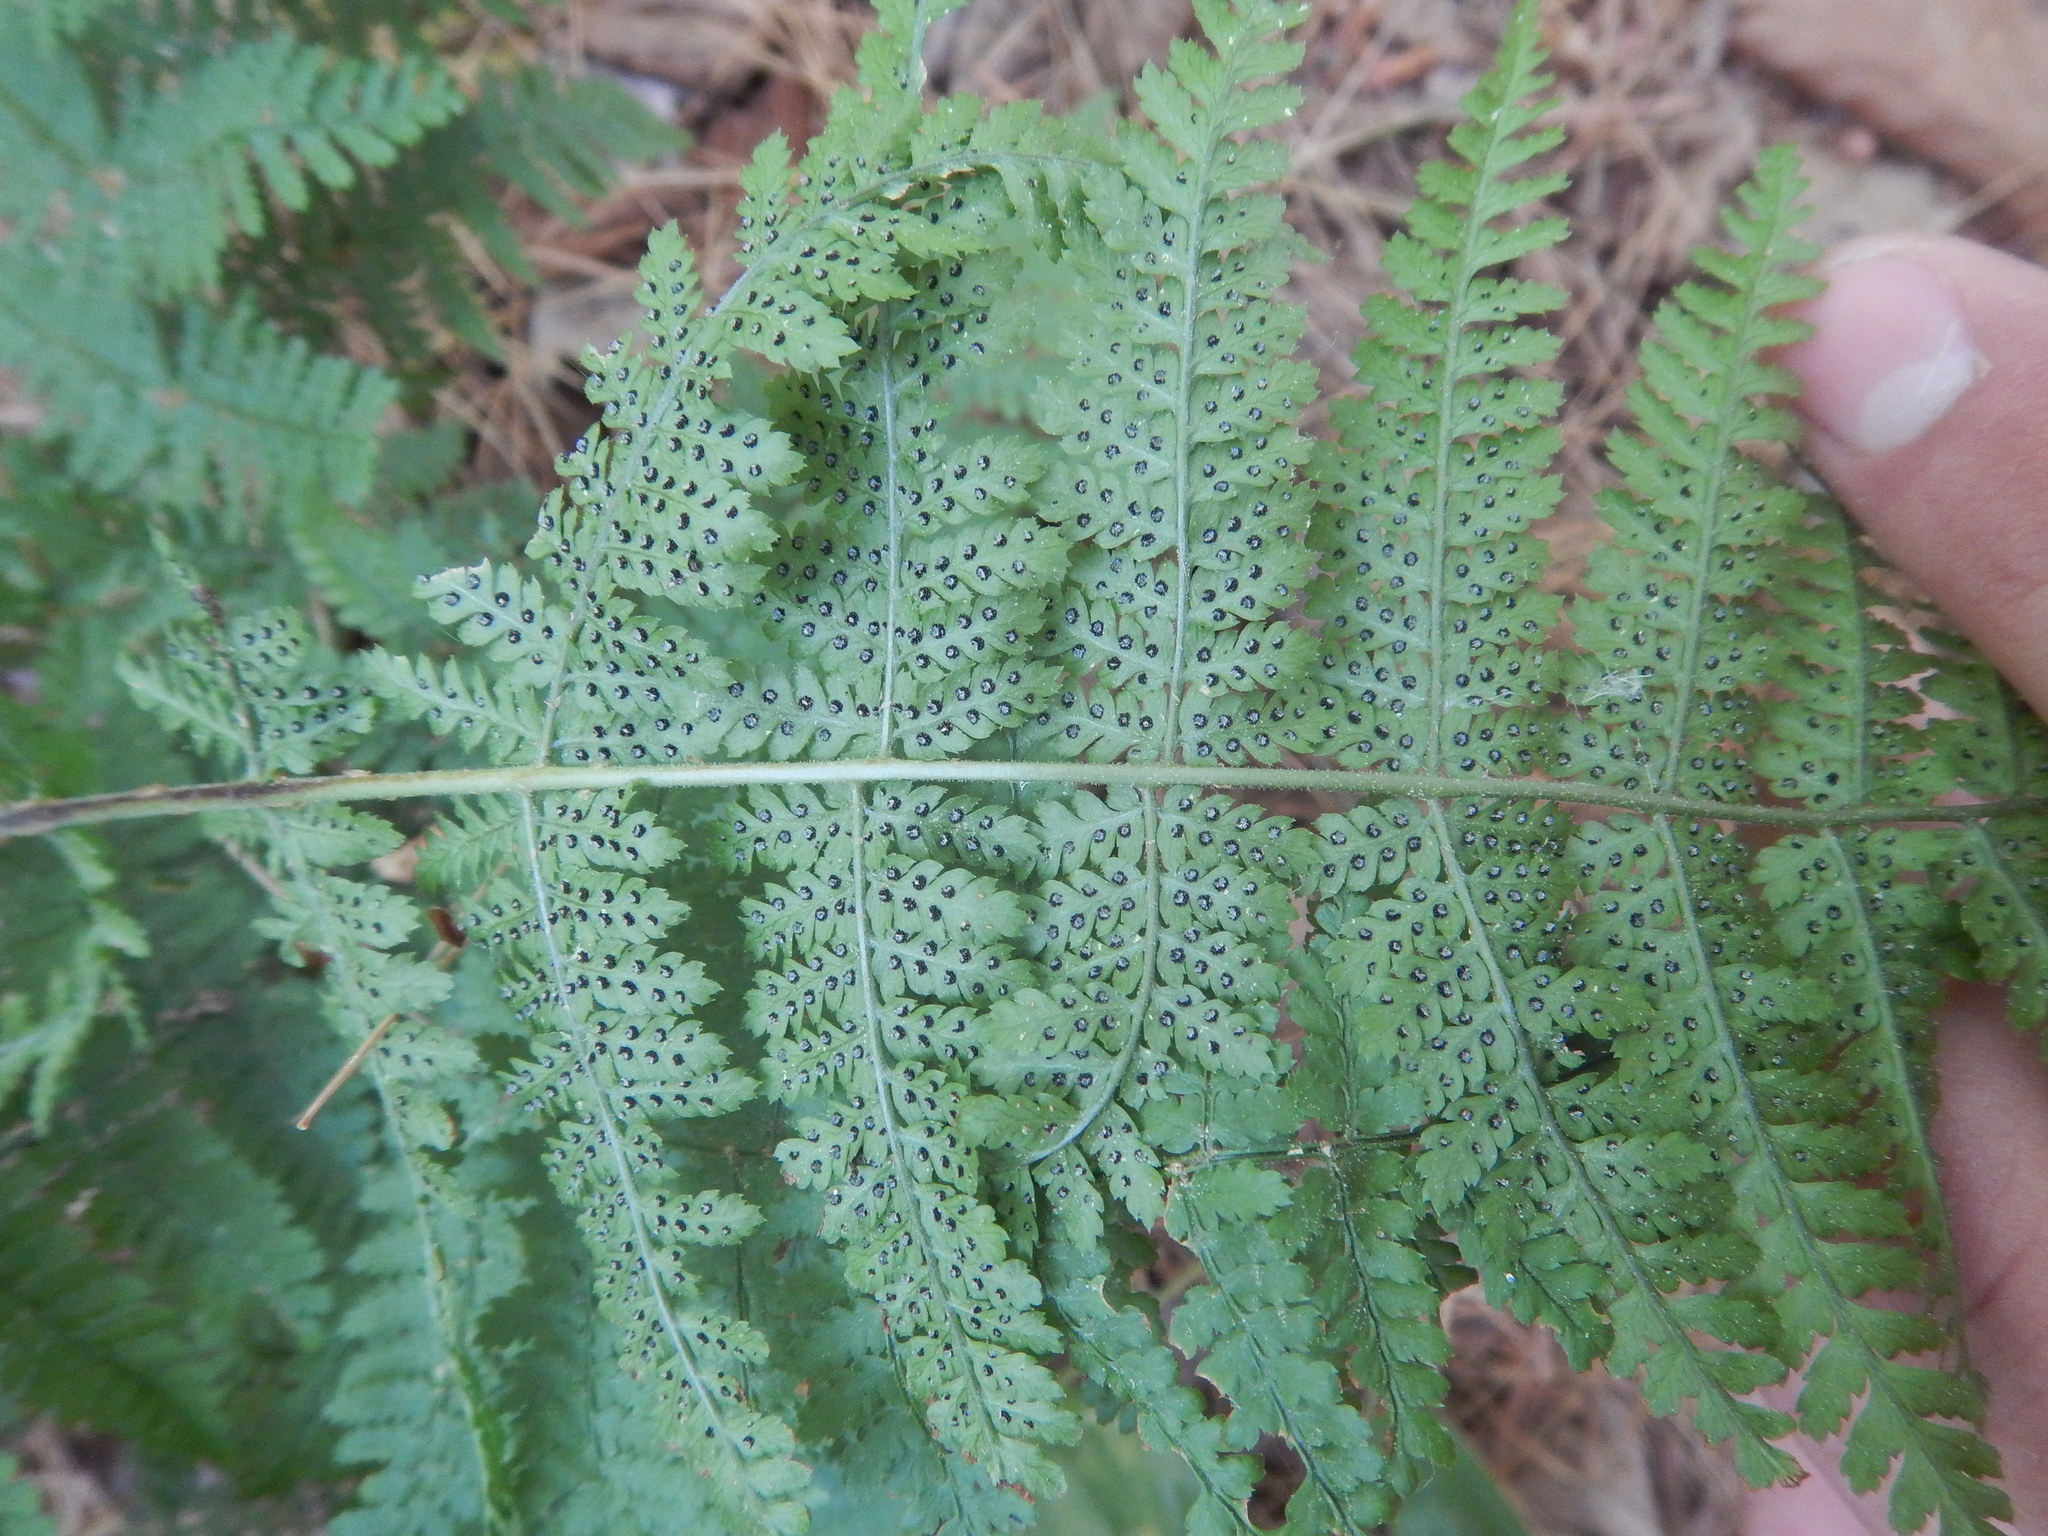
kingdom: Plantae
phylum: Tracheophyta
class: Polypodiopsida
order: Polypodiales
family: Dryopteridaceae
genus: Dryopteris
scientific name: Dryopteris carthusiana
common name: Narrow buckler-fern
